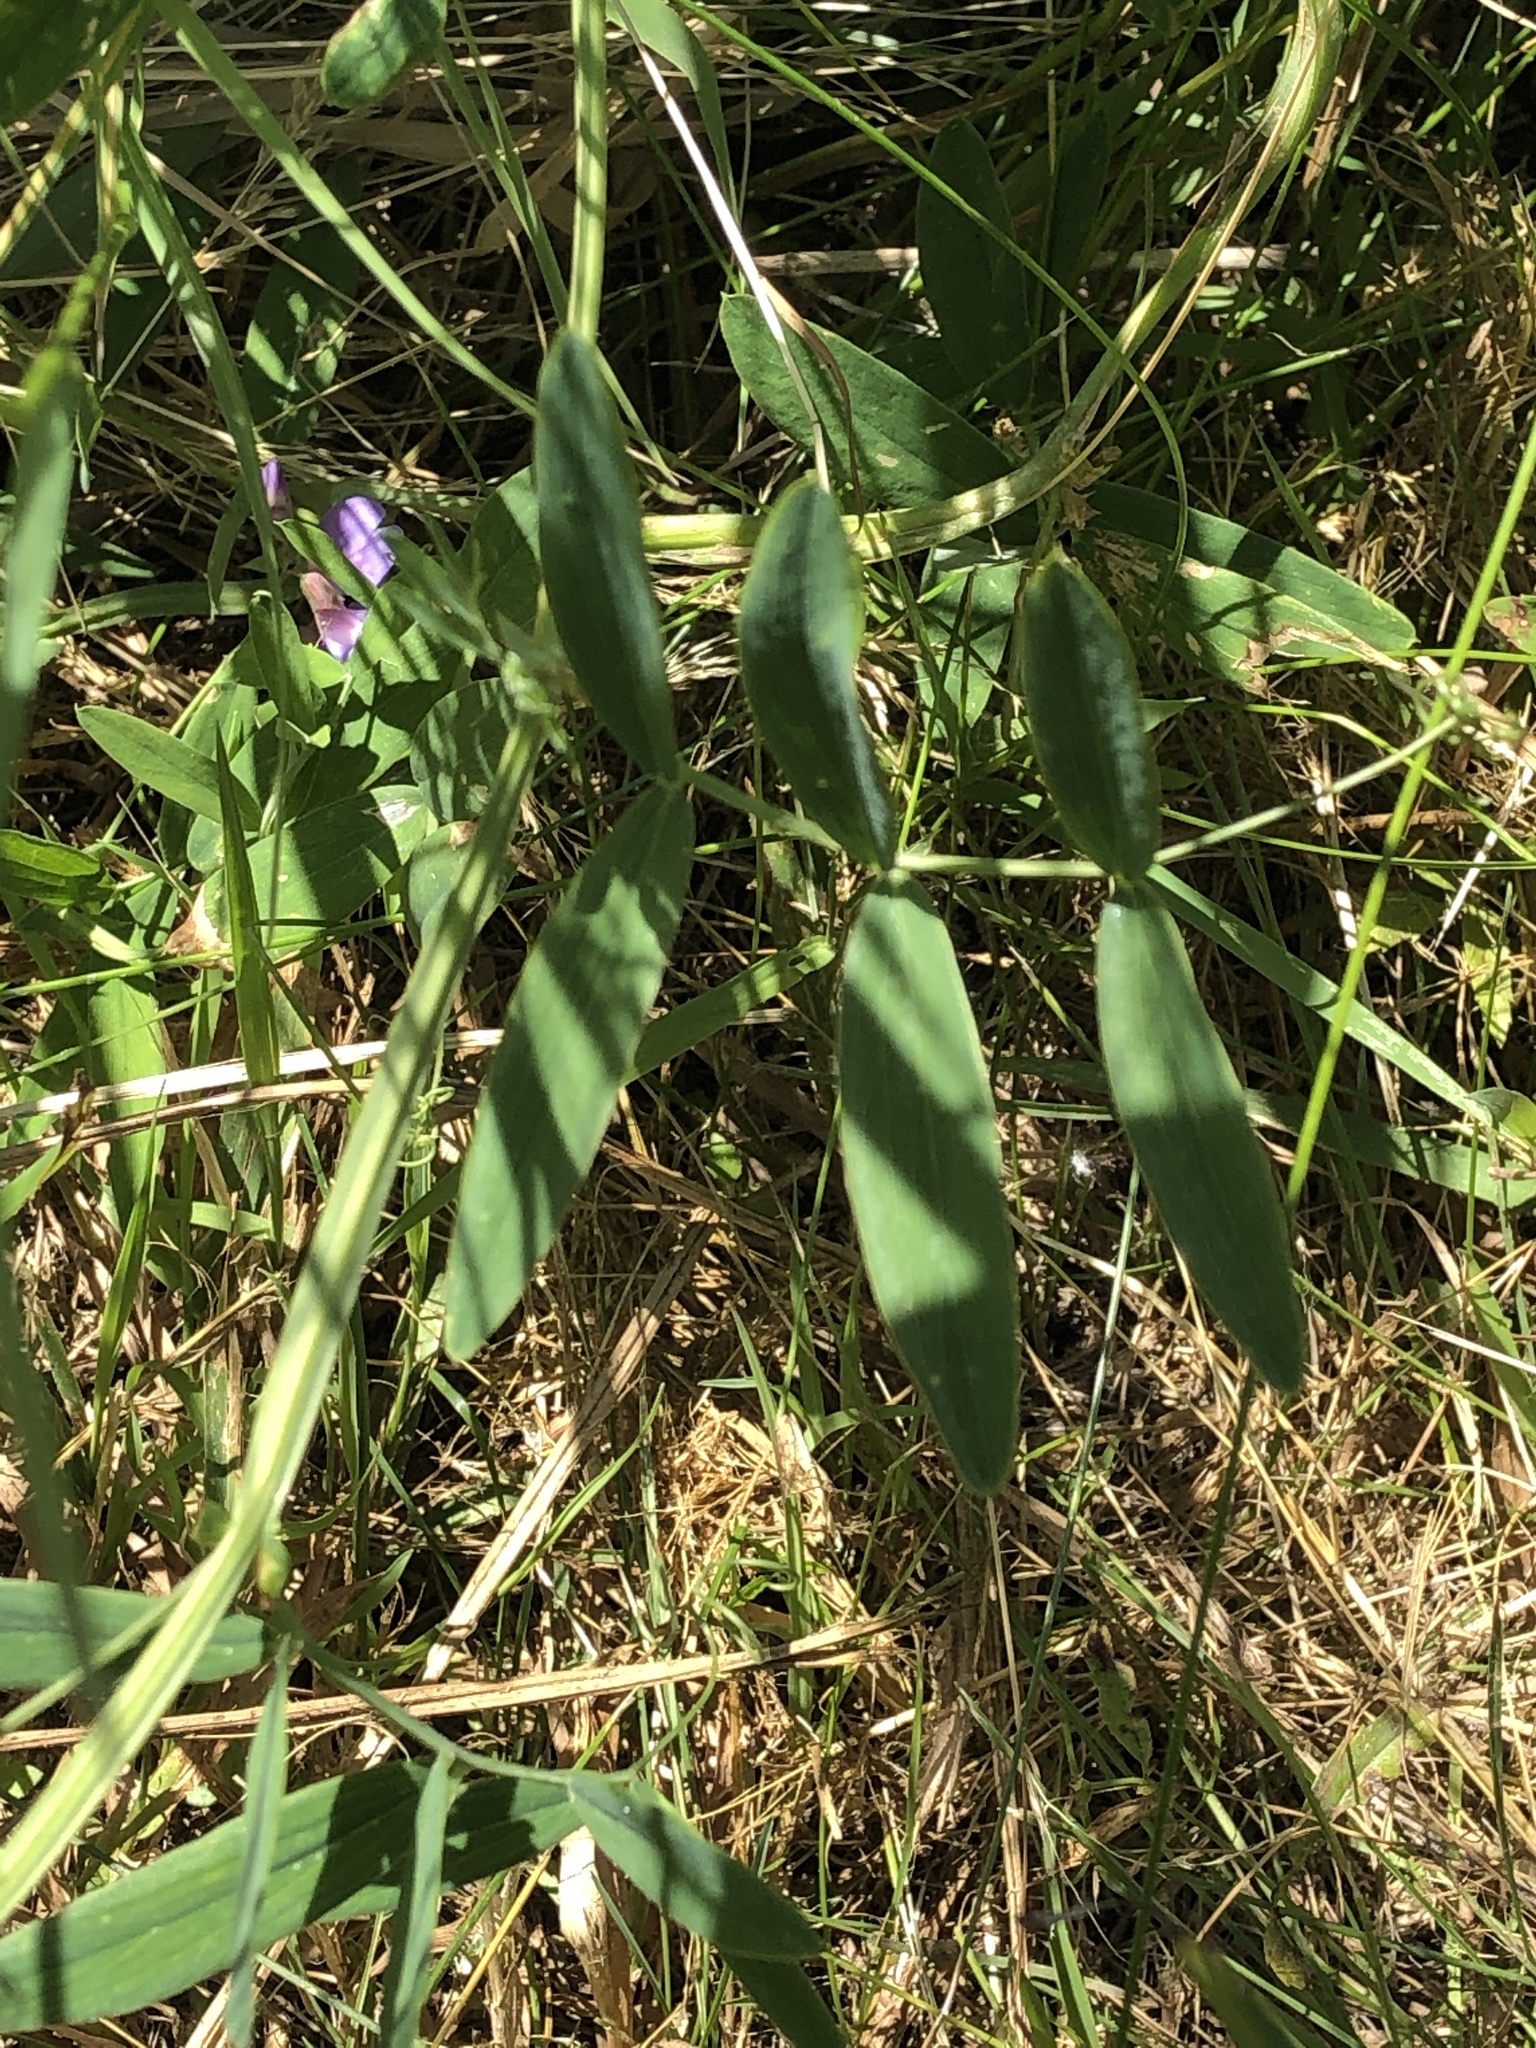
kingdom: Plantae
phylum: Tracheophyta
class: Magnoliopsida
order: Fabales
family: Fabaceae
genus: Lathyrus
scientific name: Lathyrus palustris
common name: Marsh pea
